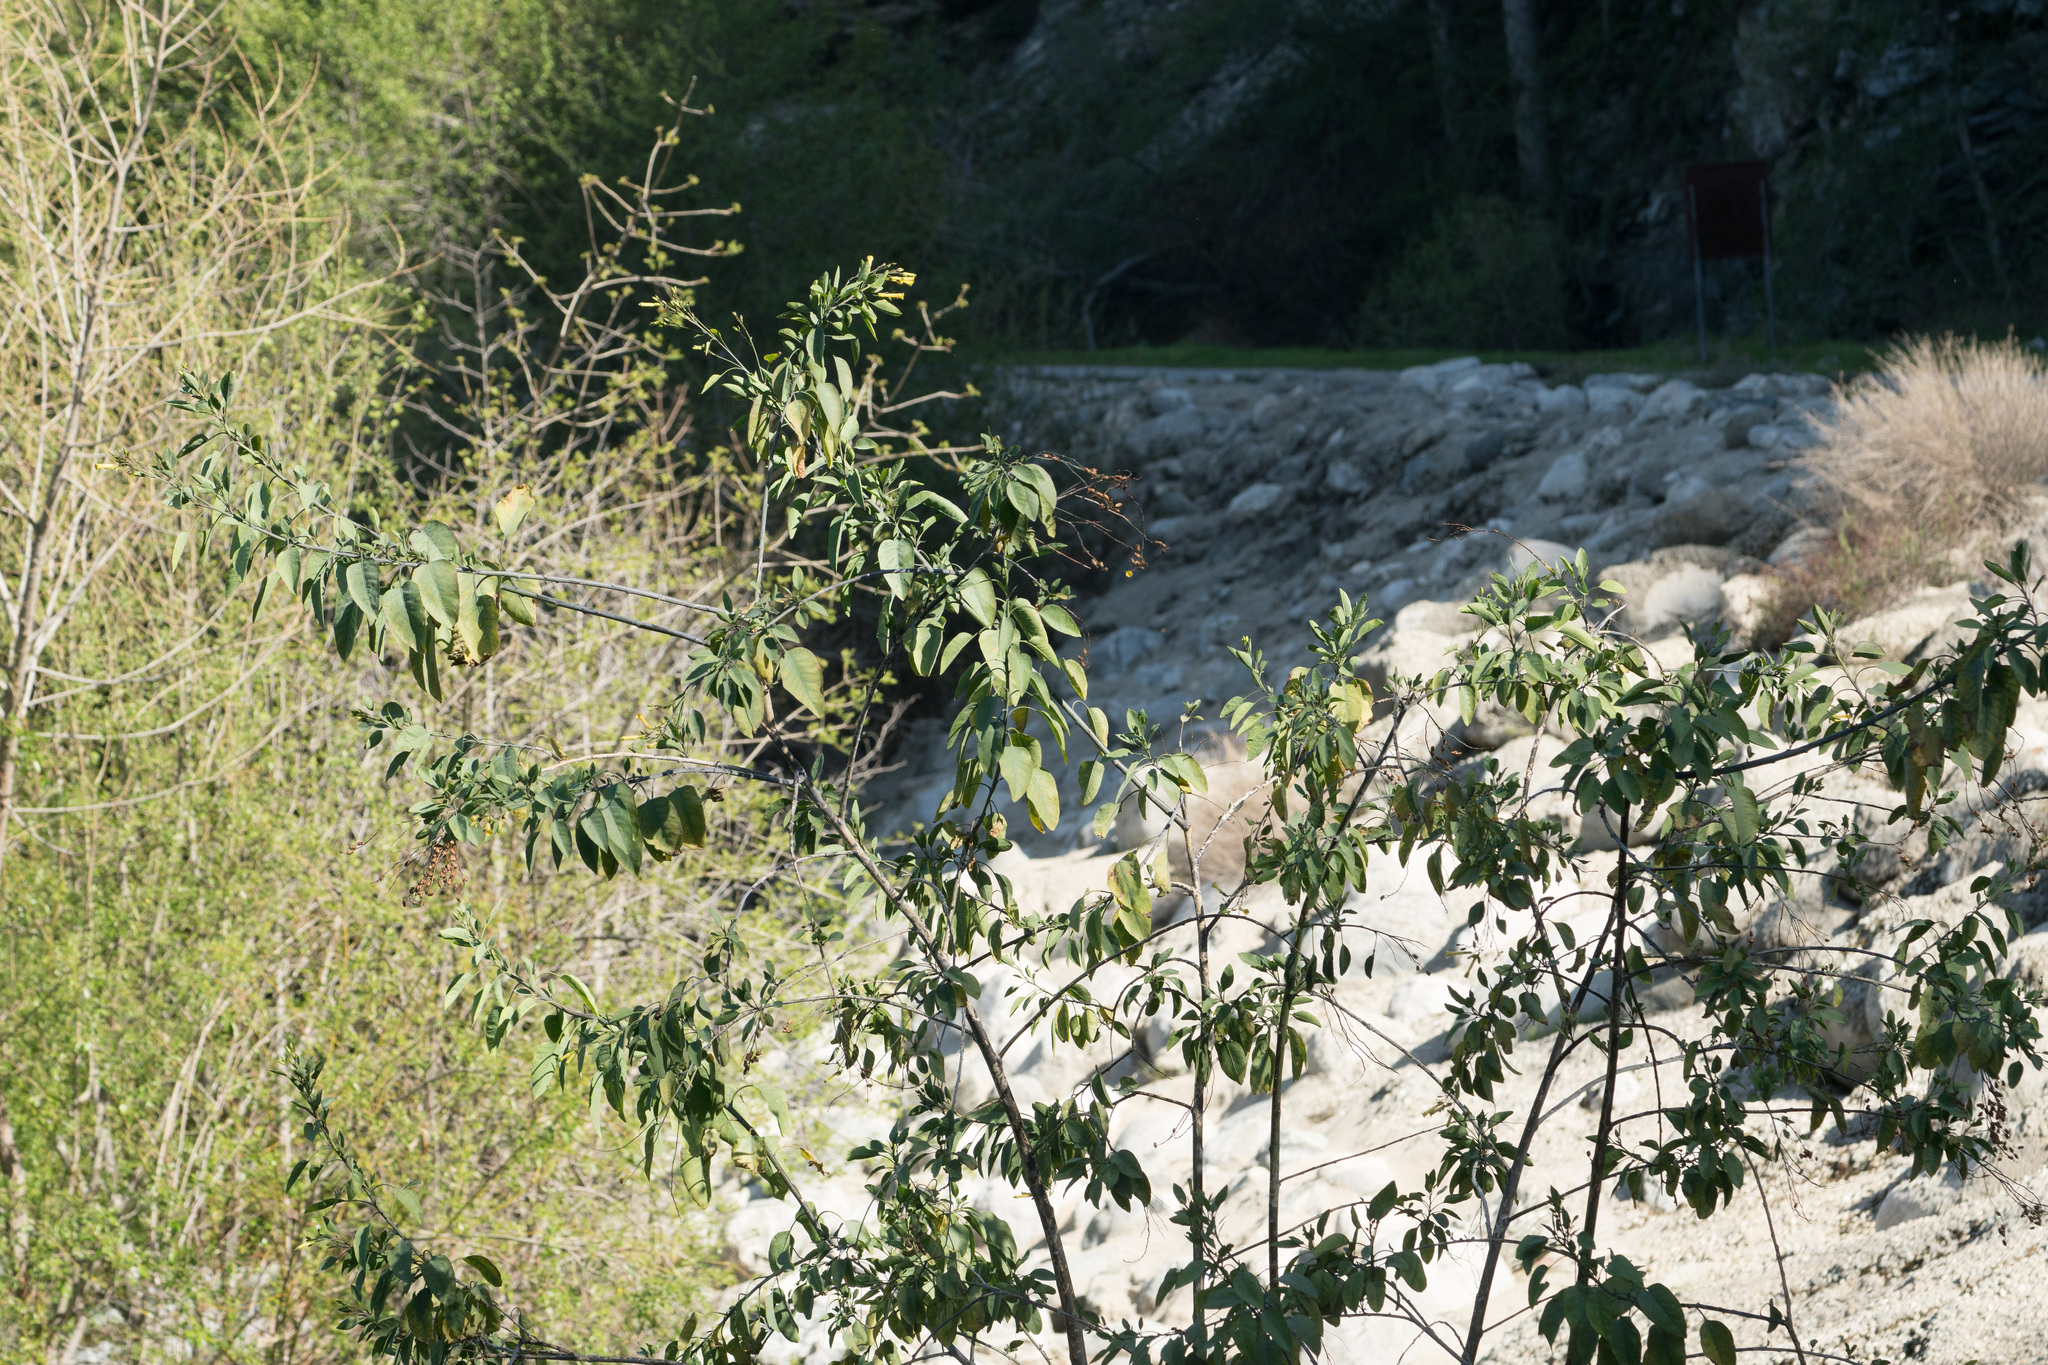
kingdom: Plantae
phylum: Tracheophyta
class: Magnoliopsida
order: Solanales
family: Solanaceae
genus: Nicotiana
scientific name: Nicotiana glauca
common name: Tree tobacco
